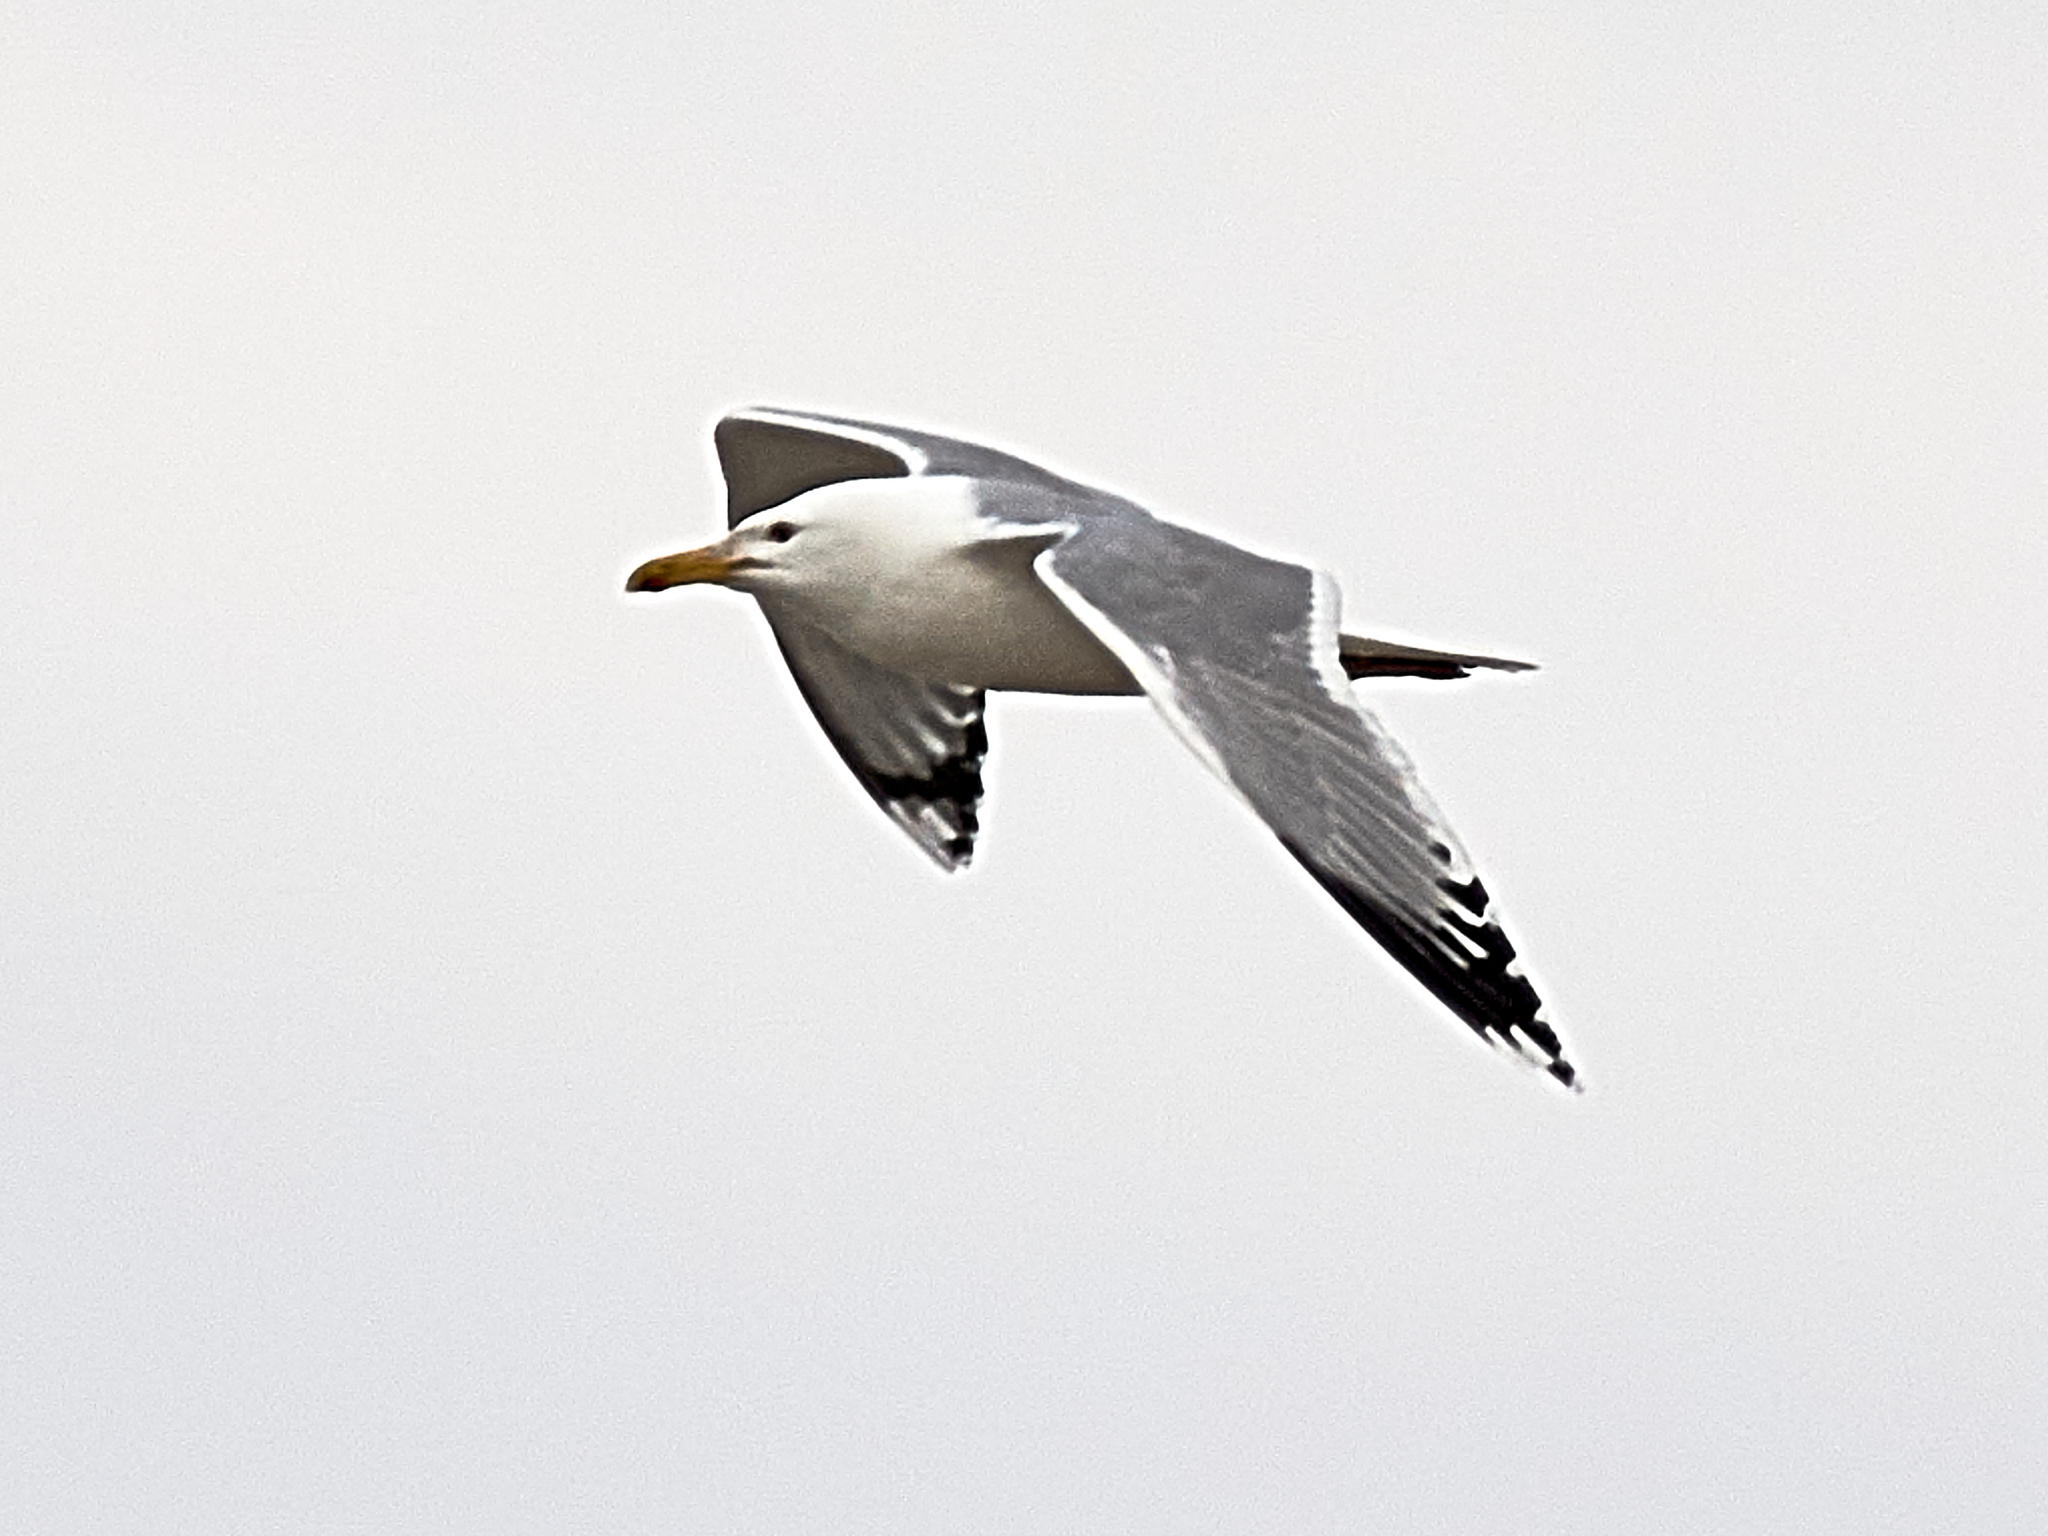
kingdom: Animalia
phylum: Chordata
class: Aves
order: Charadriiformes
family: Laridae
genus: Larus
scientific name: Larus cachinnans
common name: Caspian gull
